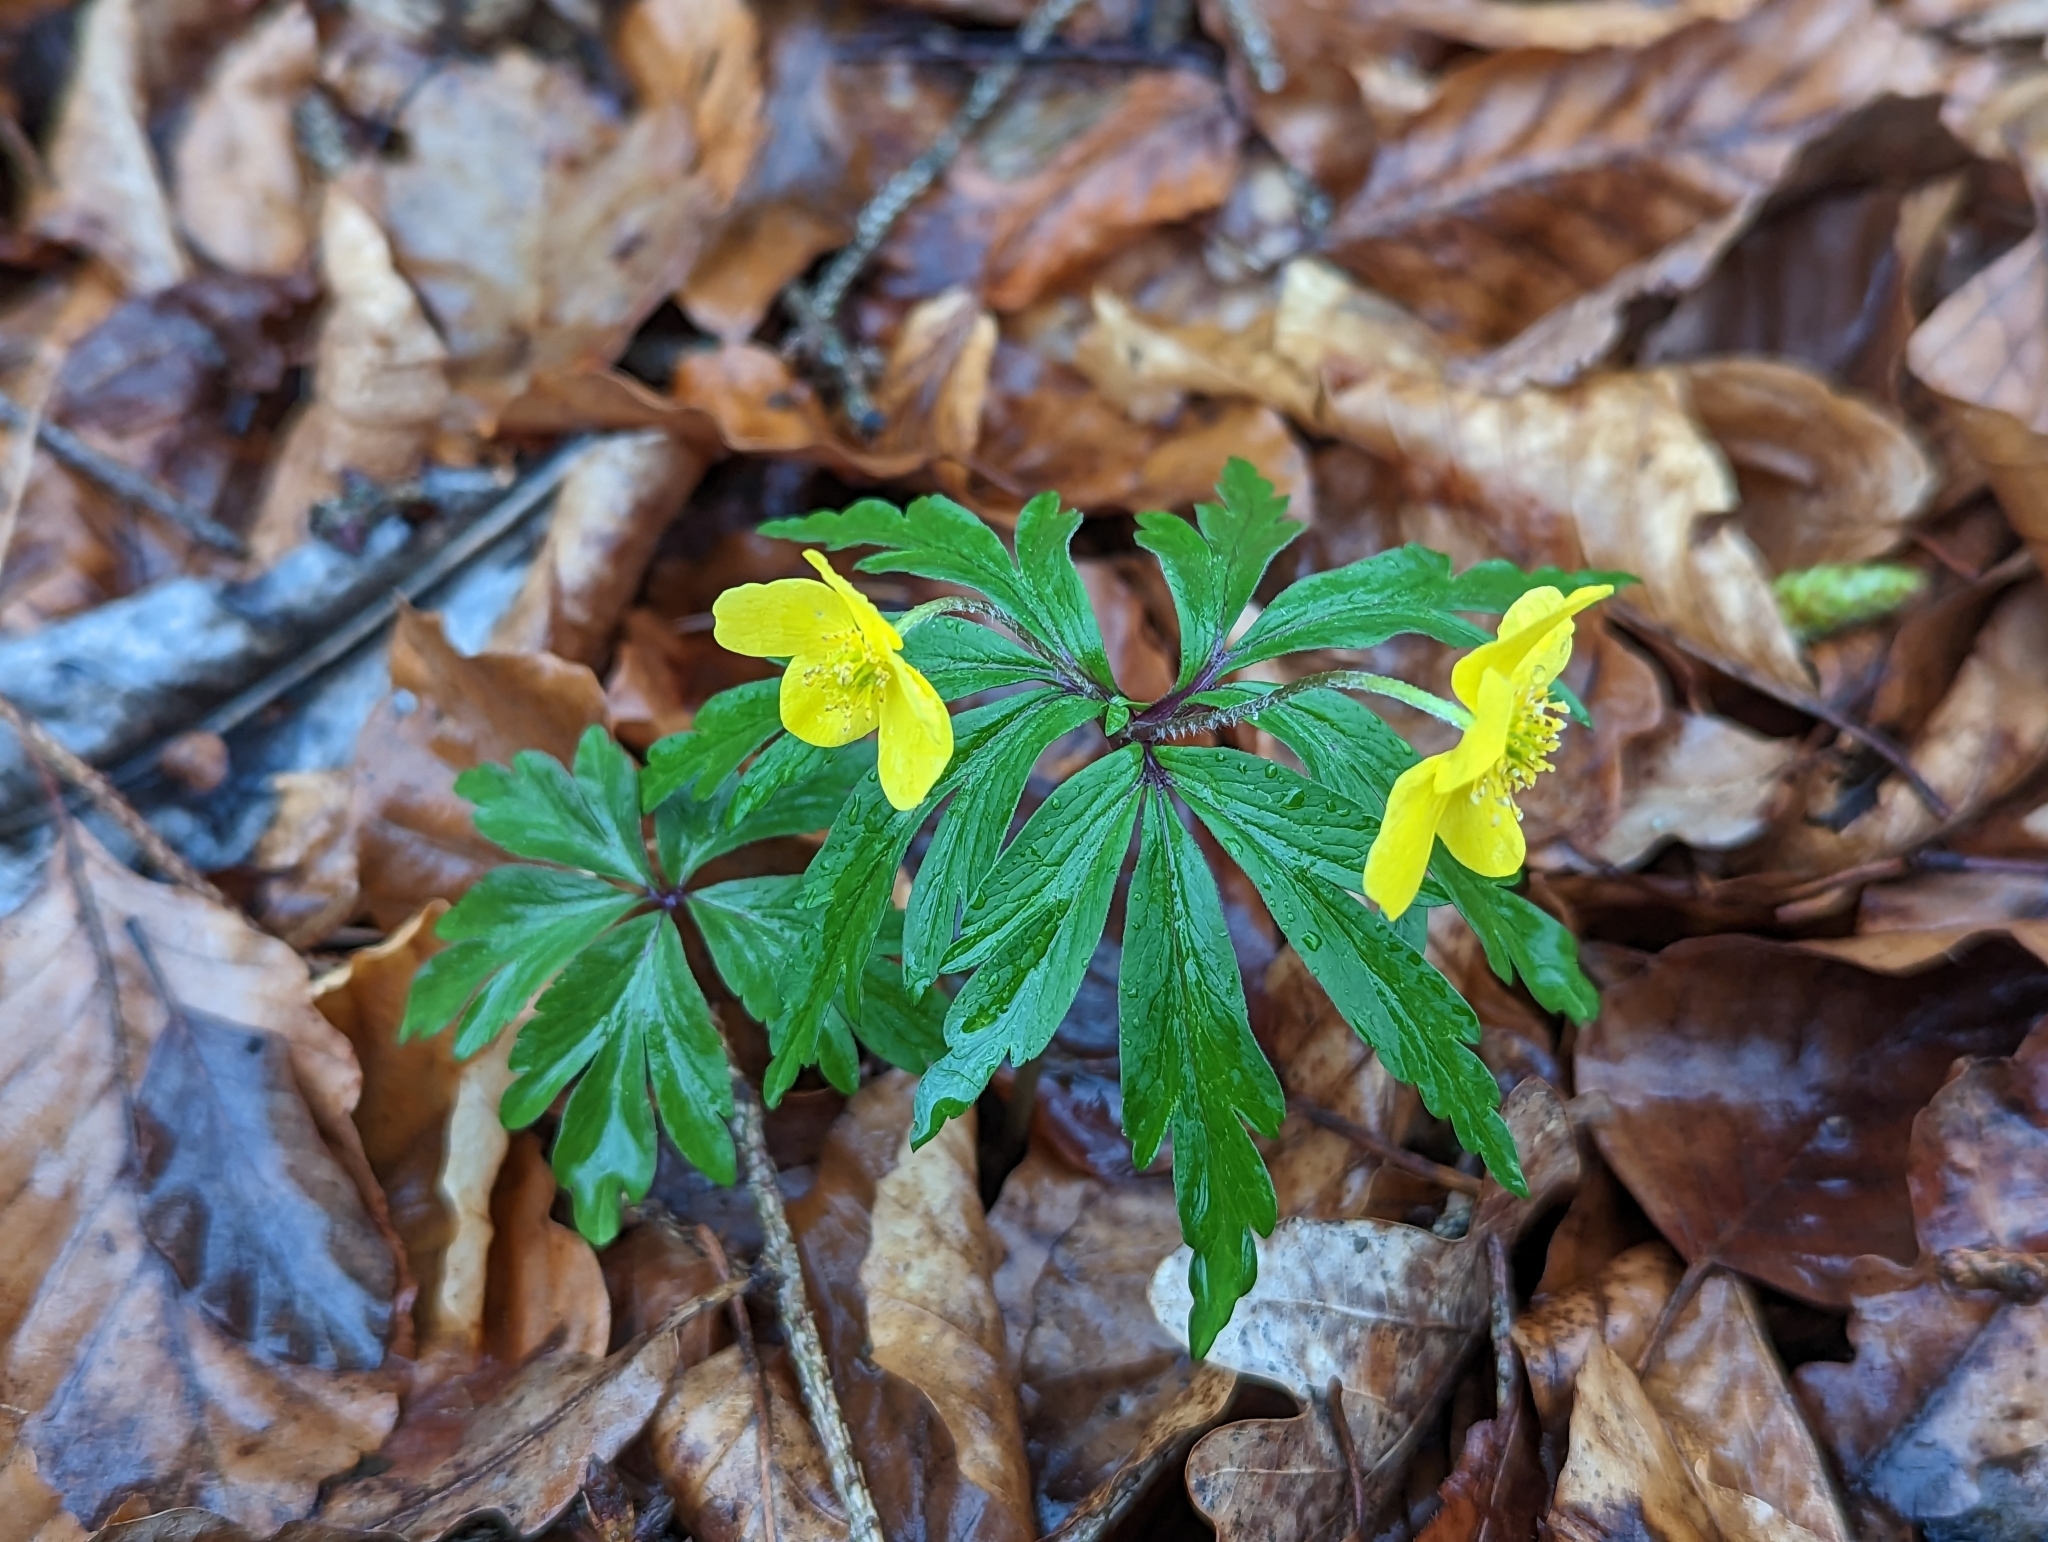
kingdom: Plantae
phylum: Tracheophyta
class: Magnoliopsida
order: Ranunculales
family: Ranunculaceae
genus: Anemone
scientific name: Anemone ranunculoides
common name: Yellow anemone
